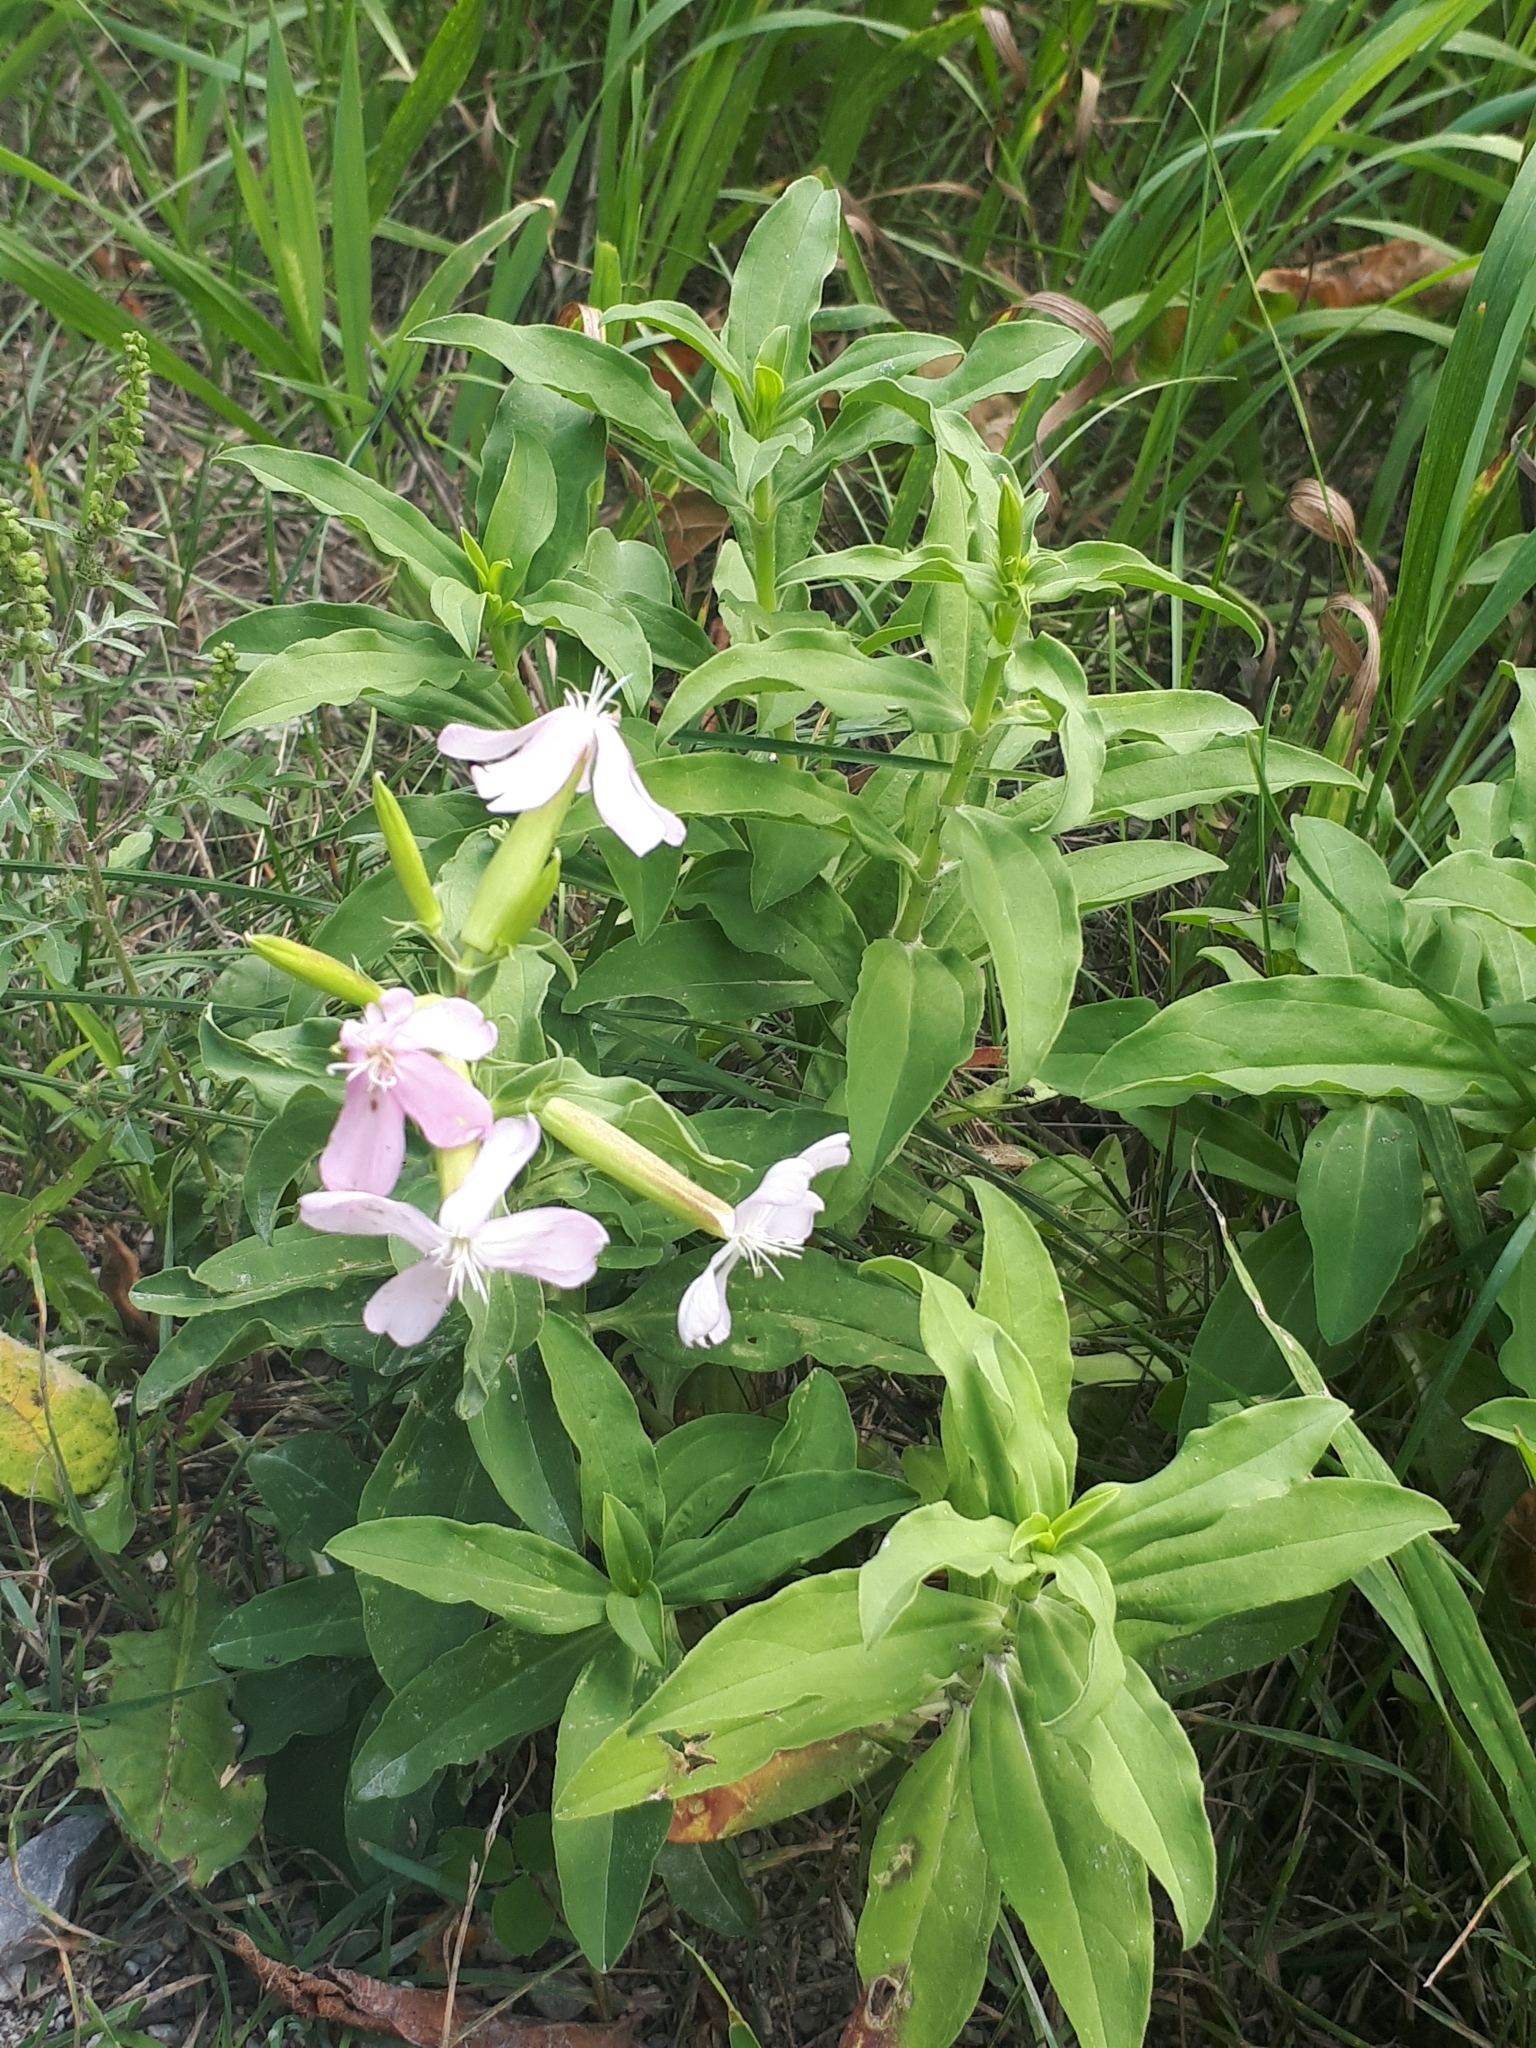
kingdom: Plantae
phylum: Tracheophyta
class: Magnoliopsida
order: Caryophyllales
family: Caryophyllaceae
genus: Saponaria
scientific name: Saponaria officinalis
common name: Soapwort
